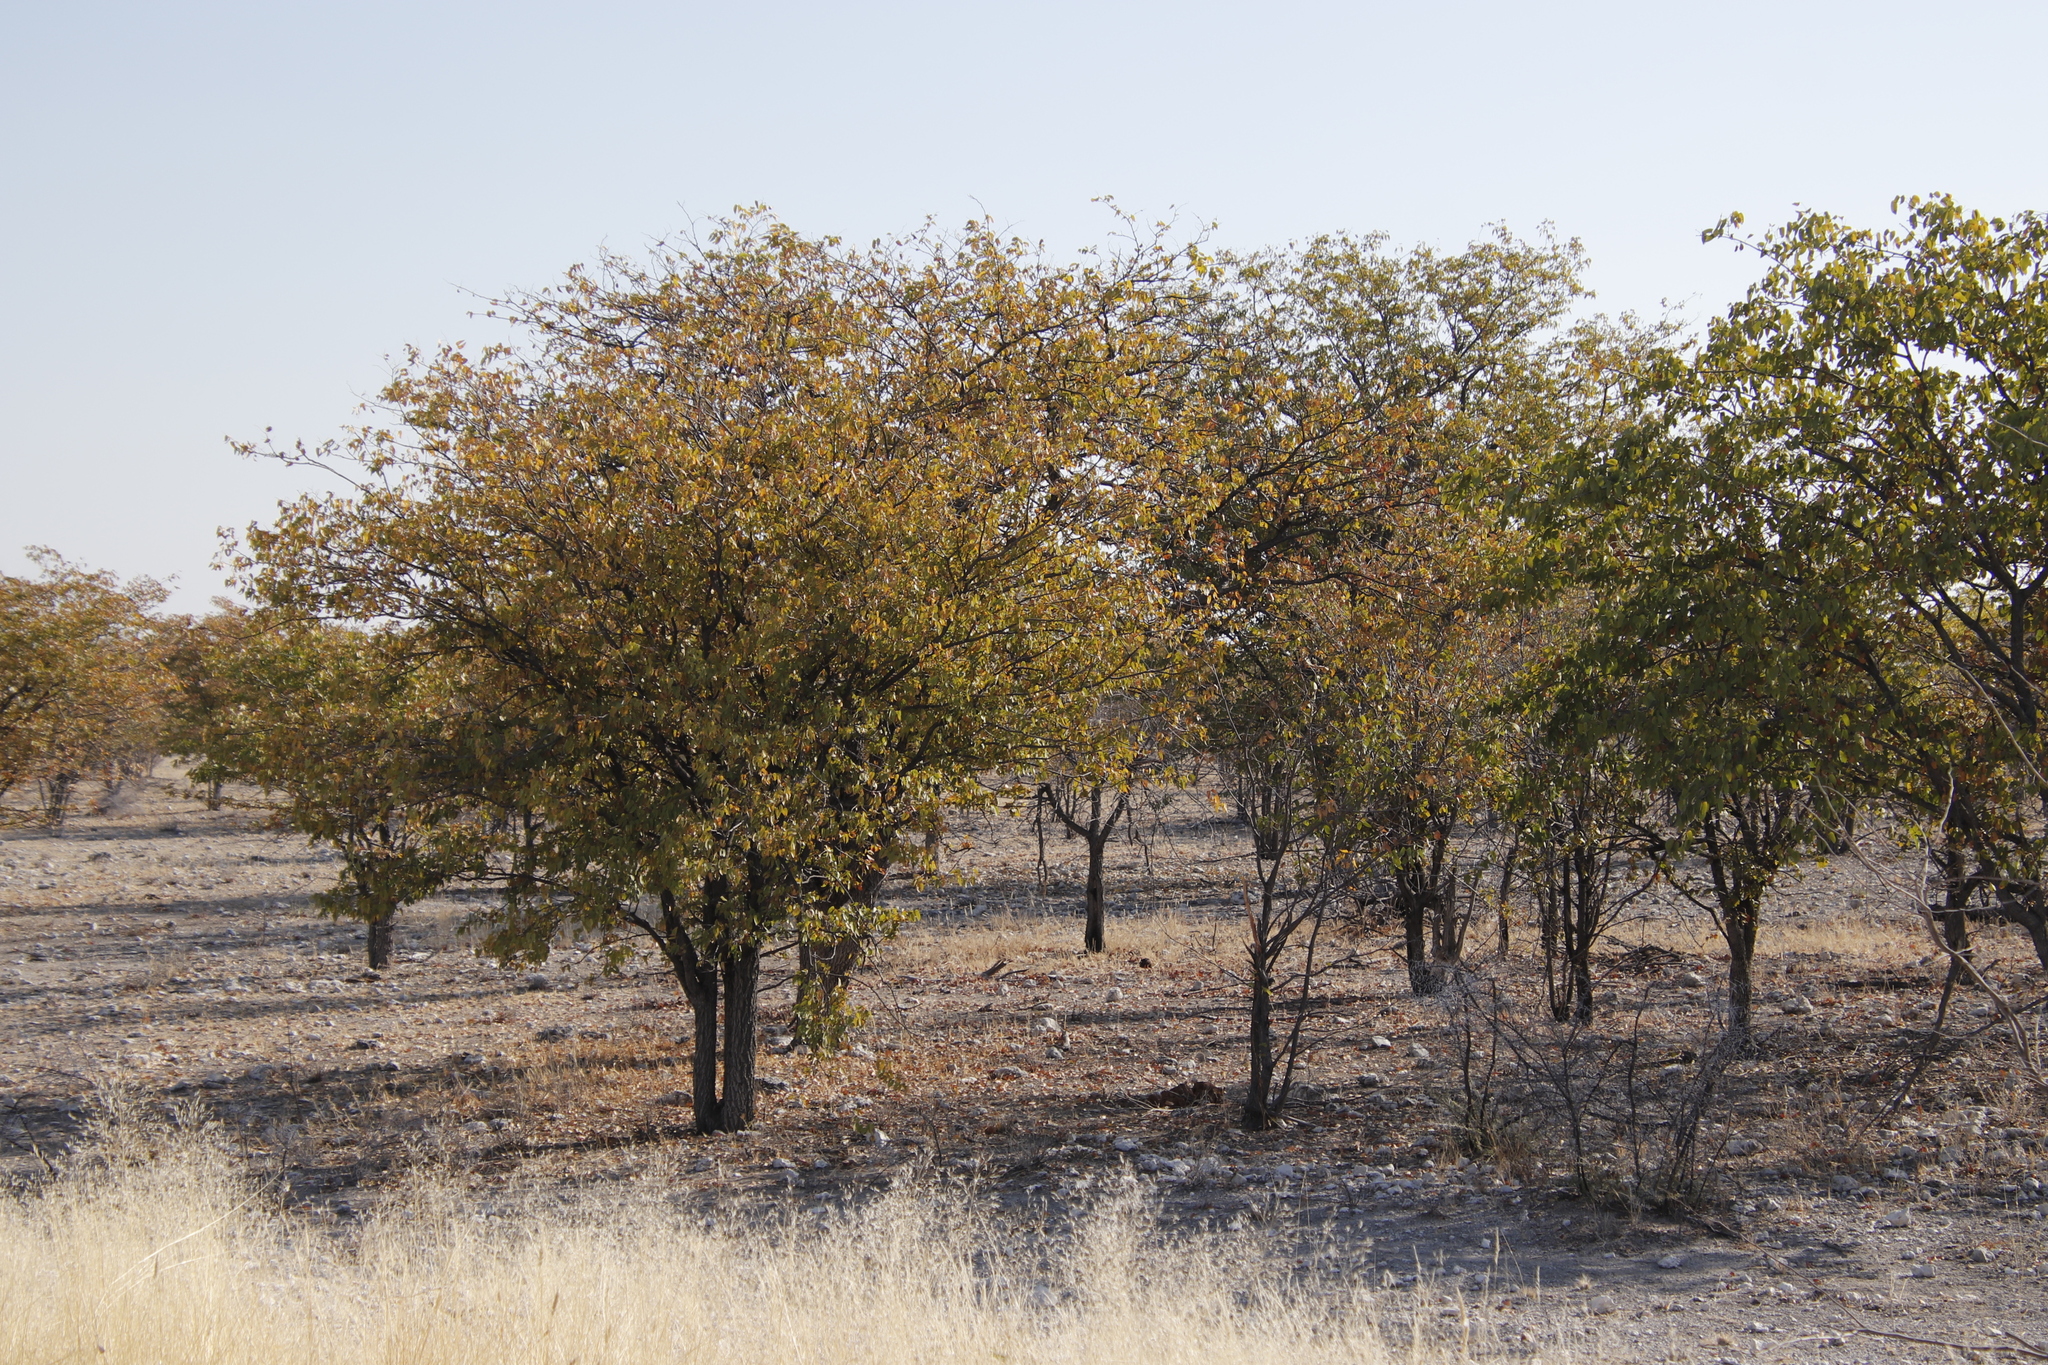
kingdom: Plantae
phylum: Tracheophyta
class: Magnoliopsida
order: Fabales
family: Fabaceae
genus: Colophospermum
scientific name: Colophospermum mopane
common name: Mopane
